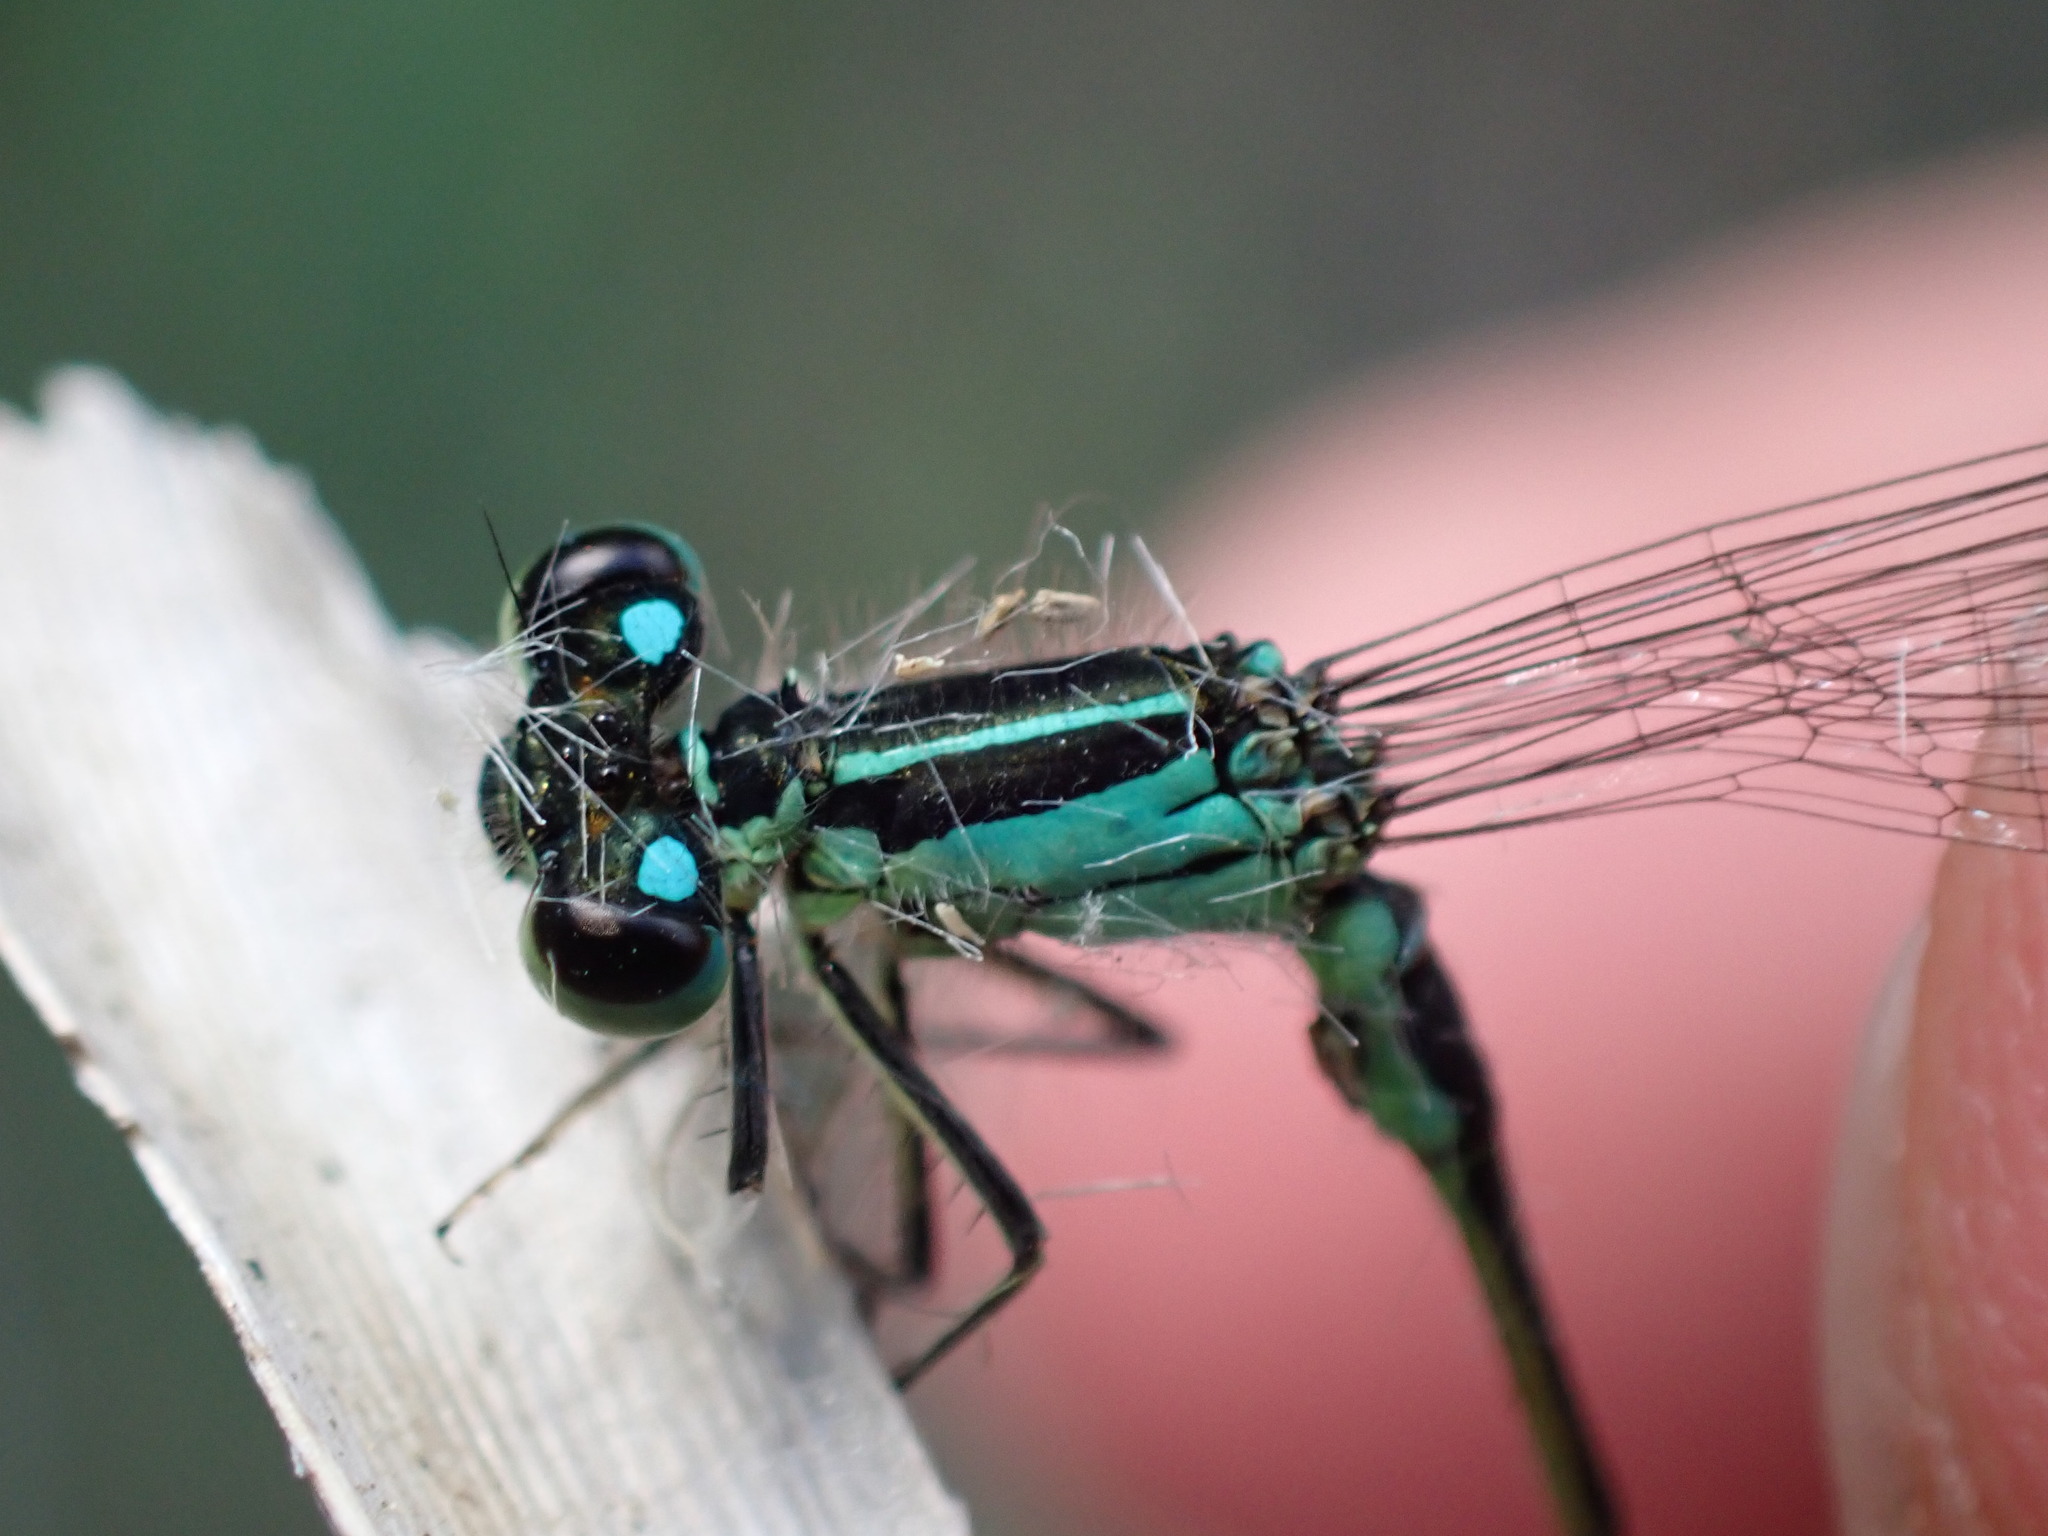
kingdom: Animalia
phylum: Arthropoda
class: Insecta
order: Odonata
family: Coenagrionidae
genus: Ischnura
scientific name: Ischnura elegans
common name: Blue-tailed damselfly
